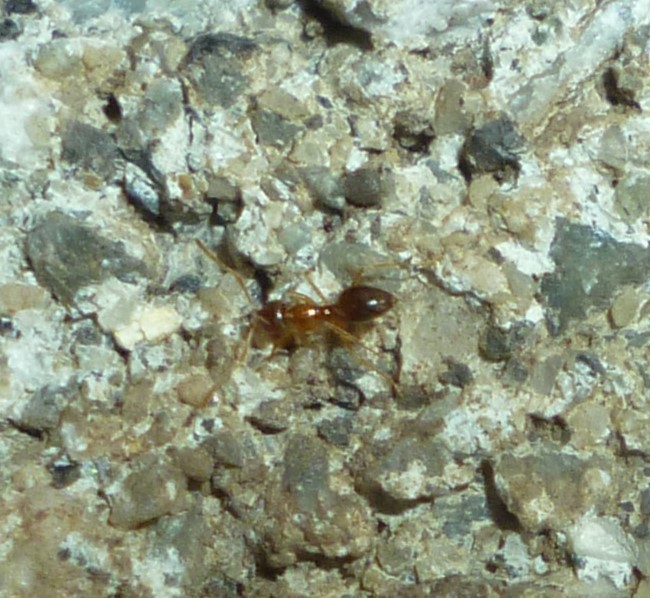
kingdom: Animalia
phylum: Arthropoda
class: Insecta
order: Hymenoptera
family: Formicidae
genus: Paratrechina
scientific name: Paratrechina flavipes
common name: Eastern asian formicine ant
